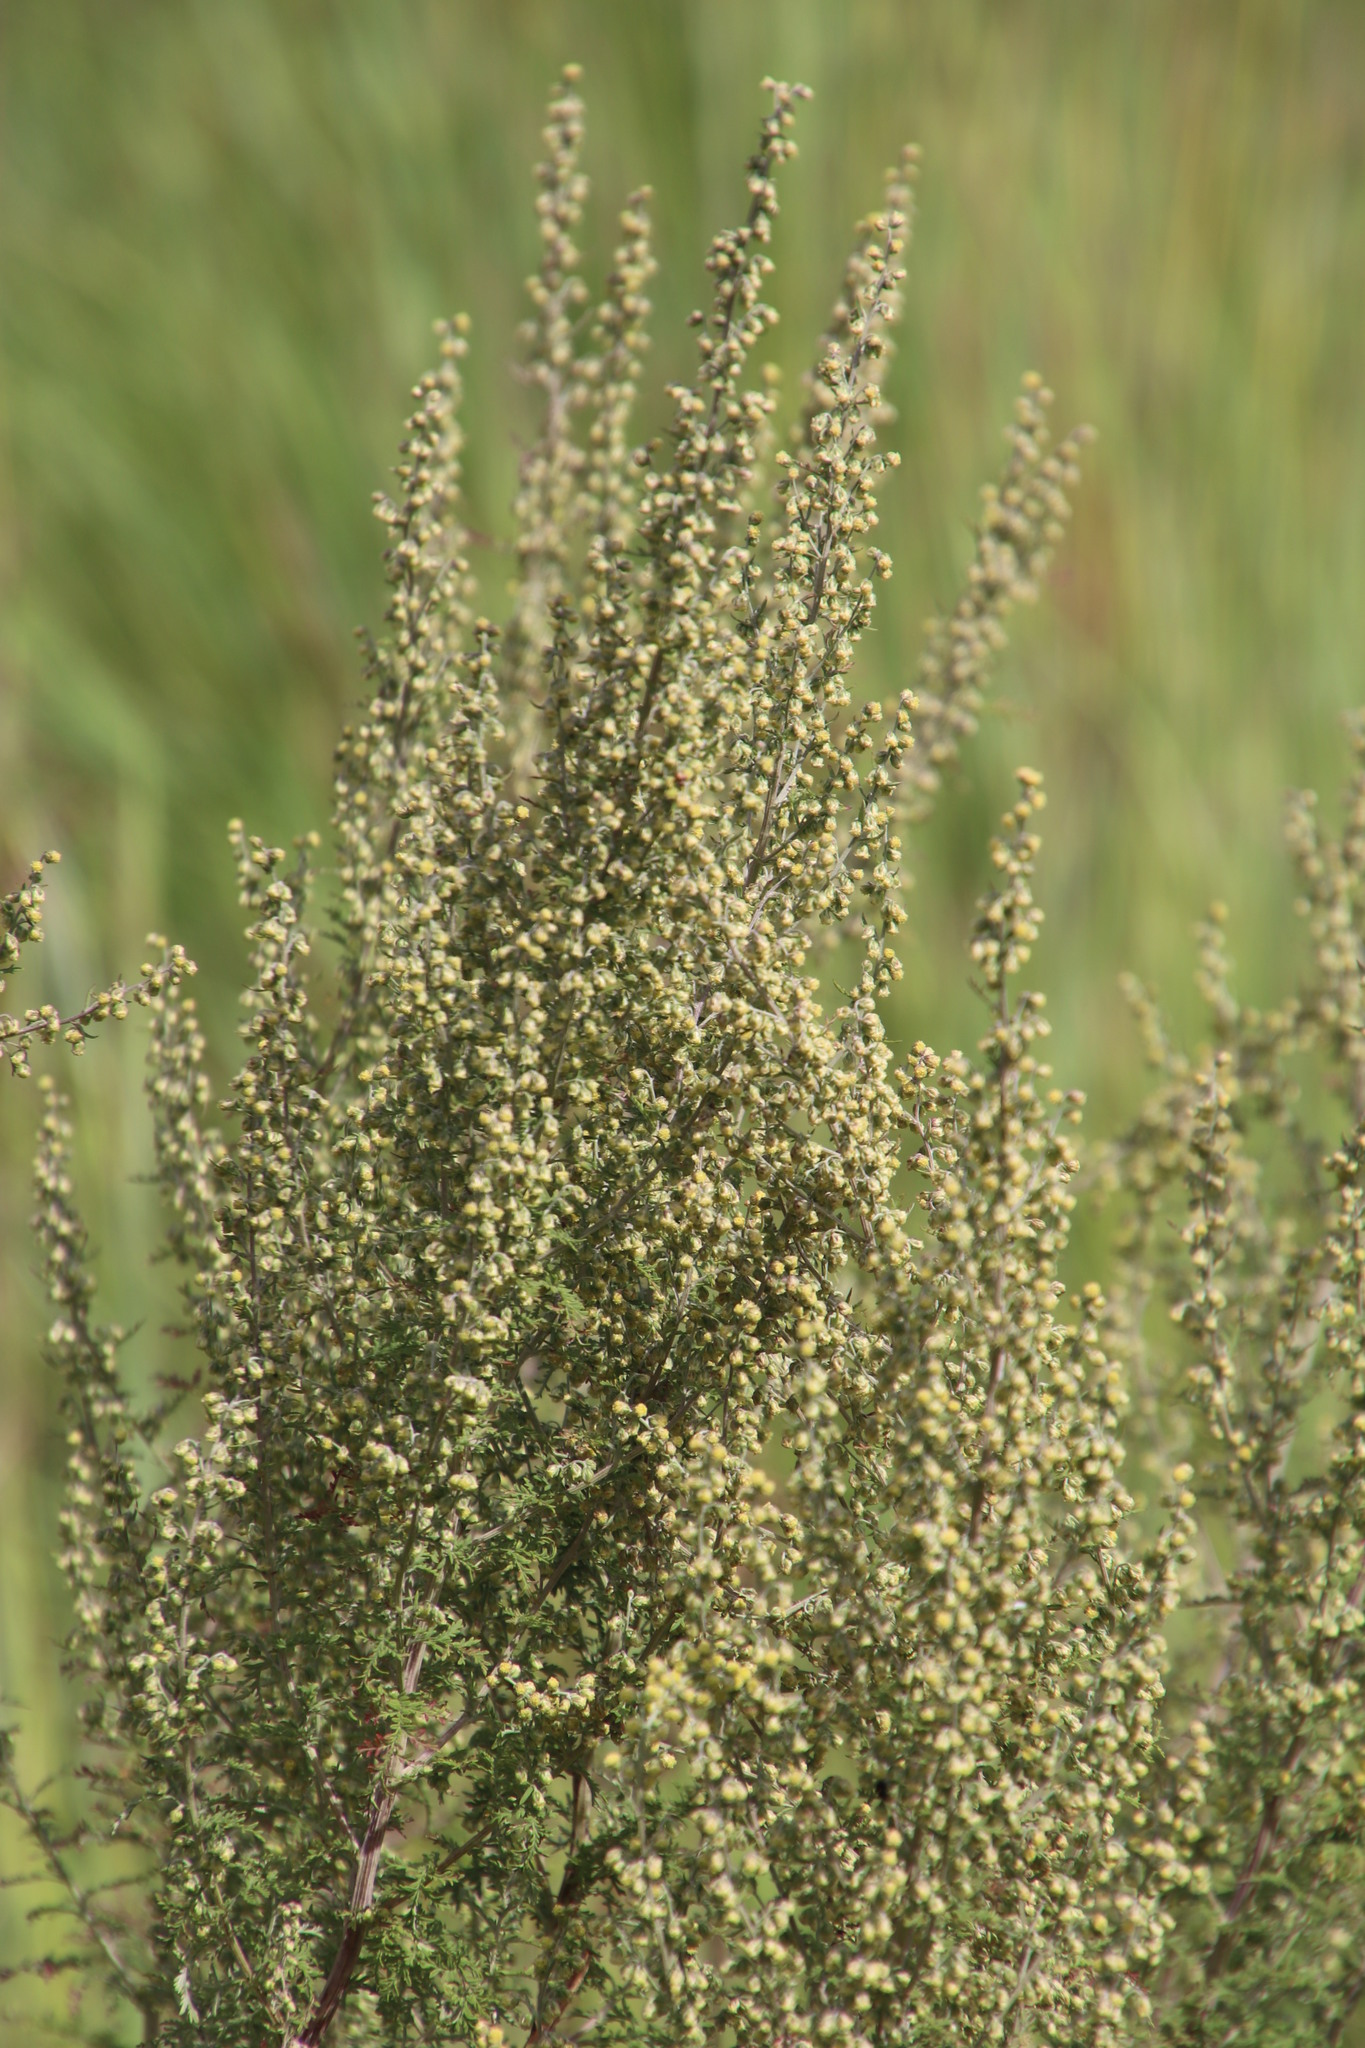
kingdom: Plantae
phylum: Tracheophyta
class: Magnoliopsida
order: Asterales
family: Asteraceae
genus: Artemisia
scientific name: Artemisia afra
